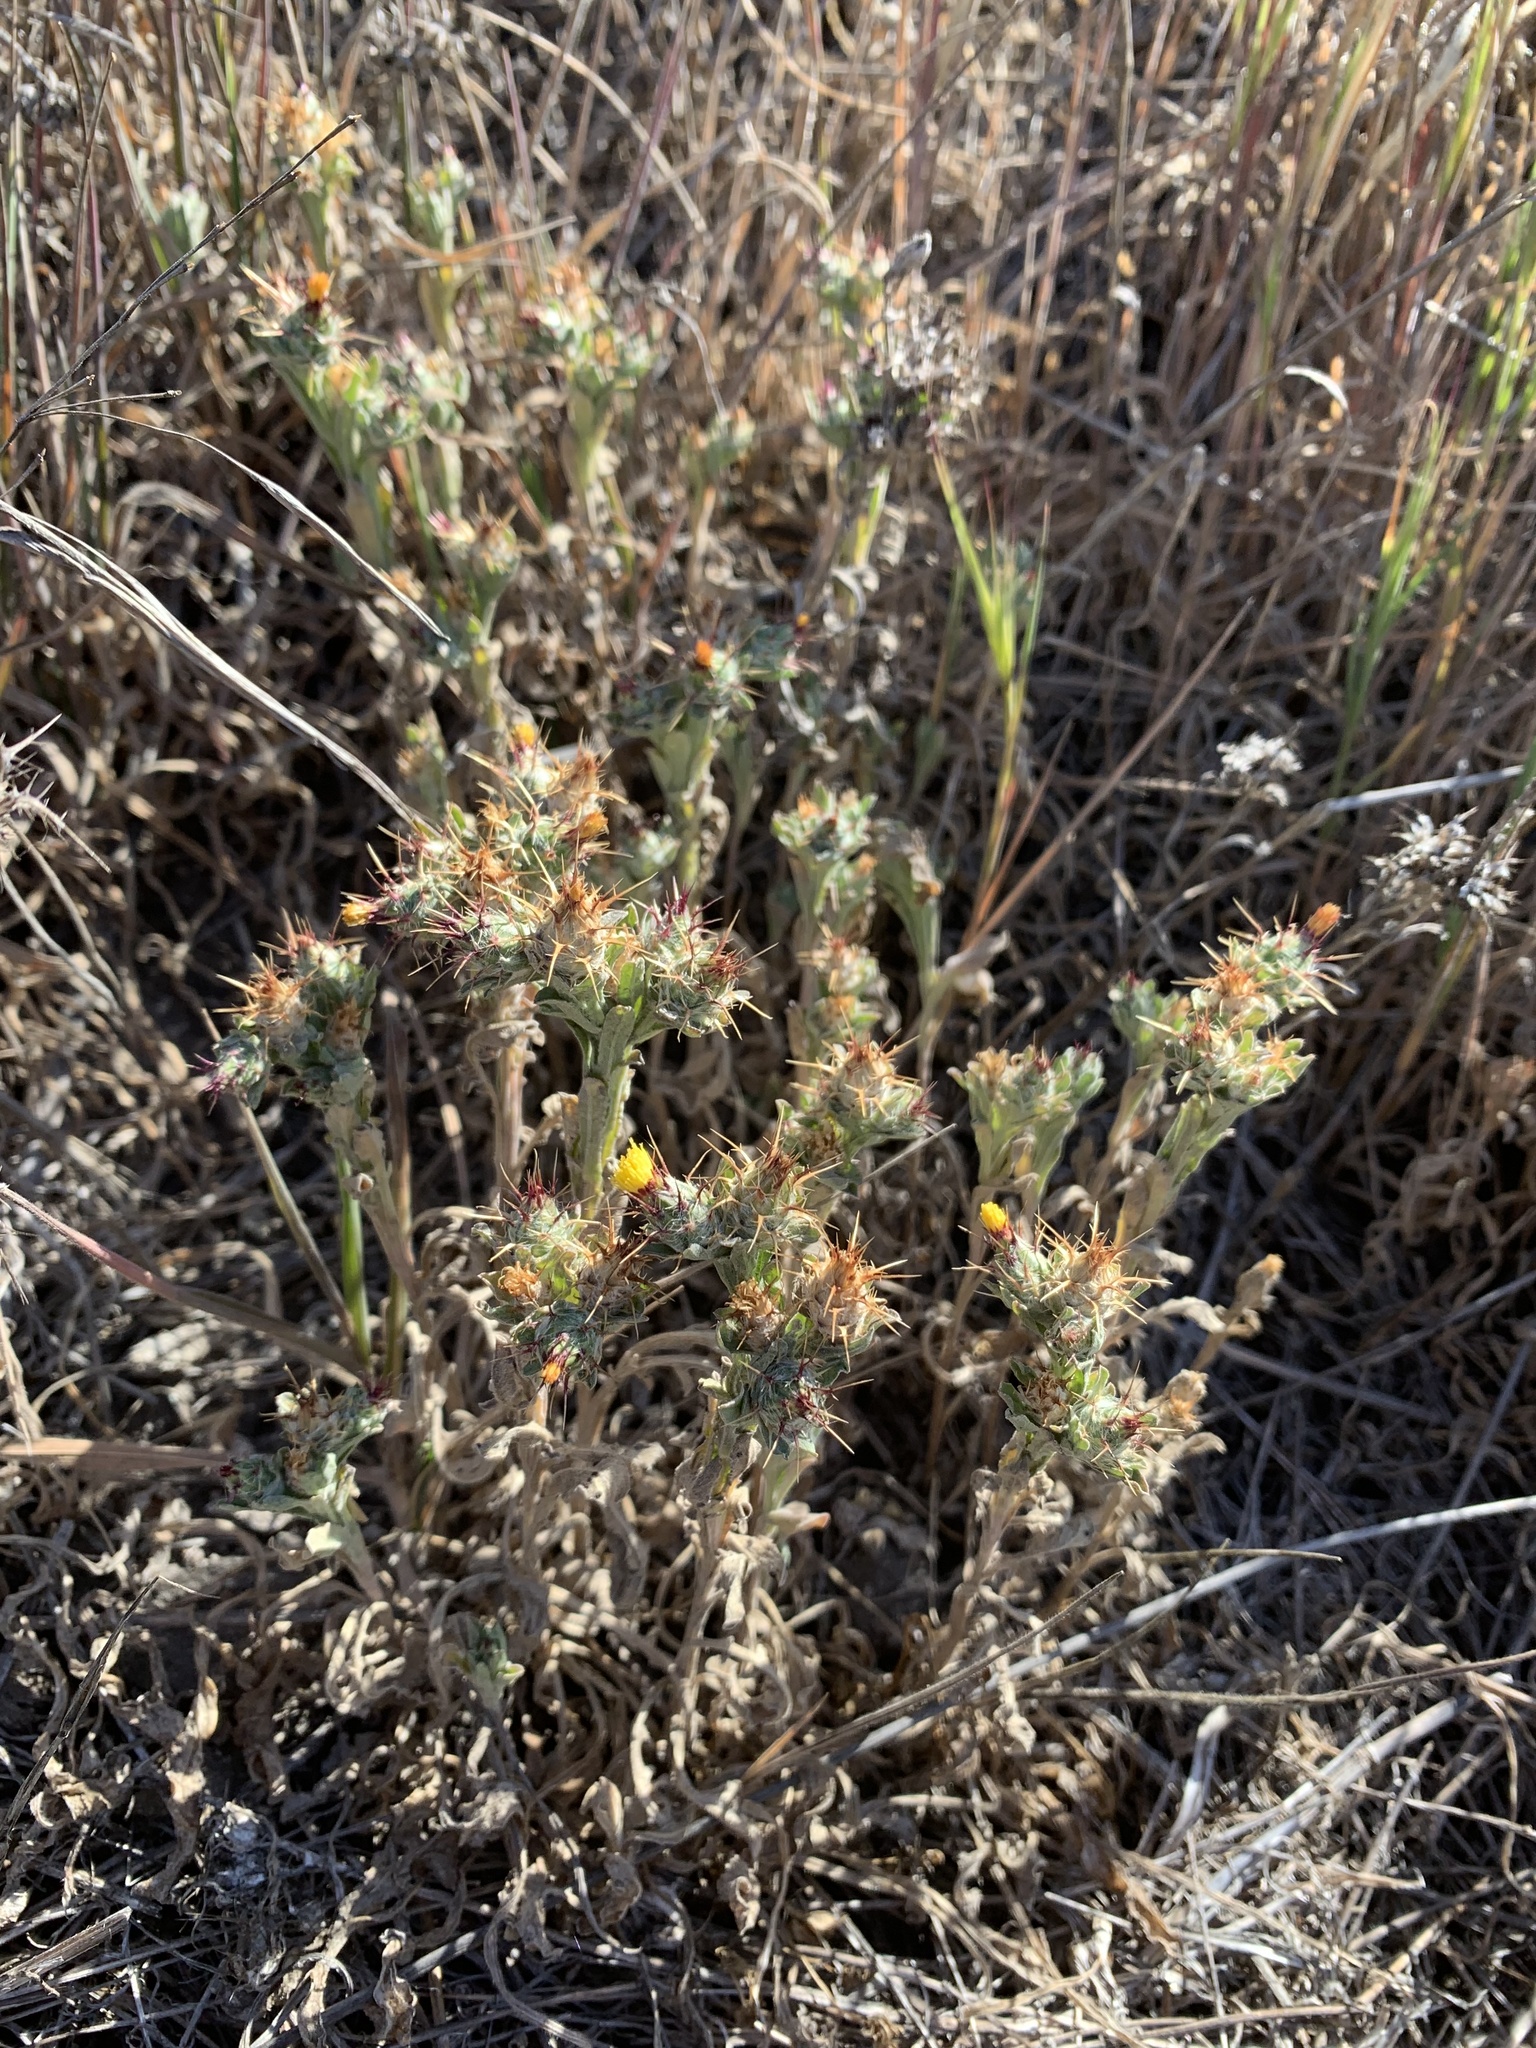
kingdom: Plantae
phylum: Tracheophyta
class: Magnoliopsida
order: Asterales
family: Asteraceae
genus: Centaurea
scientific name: Centaurea melitensis
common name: Maltese star-thistle
